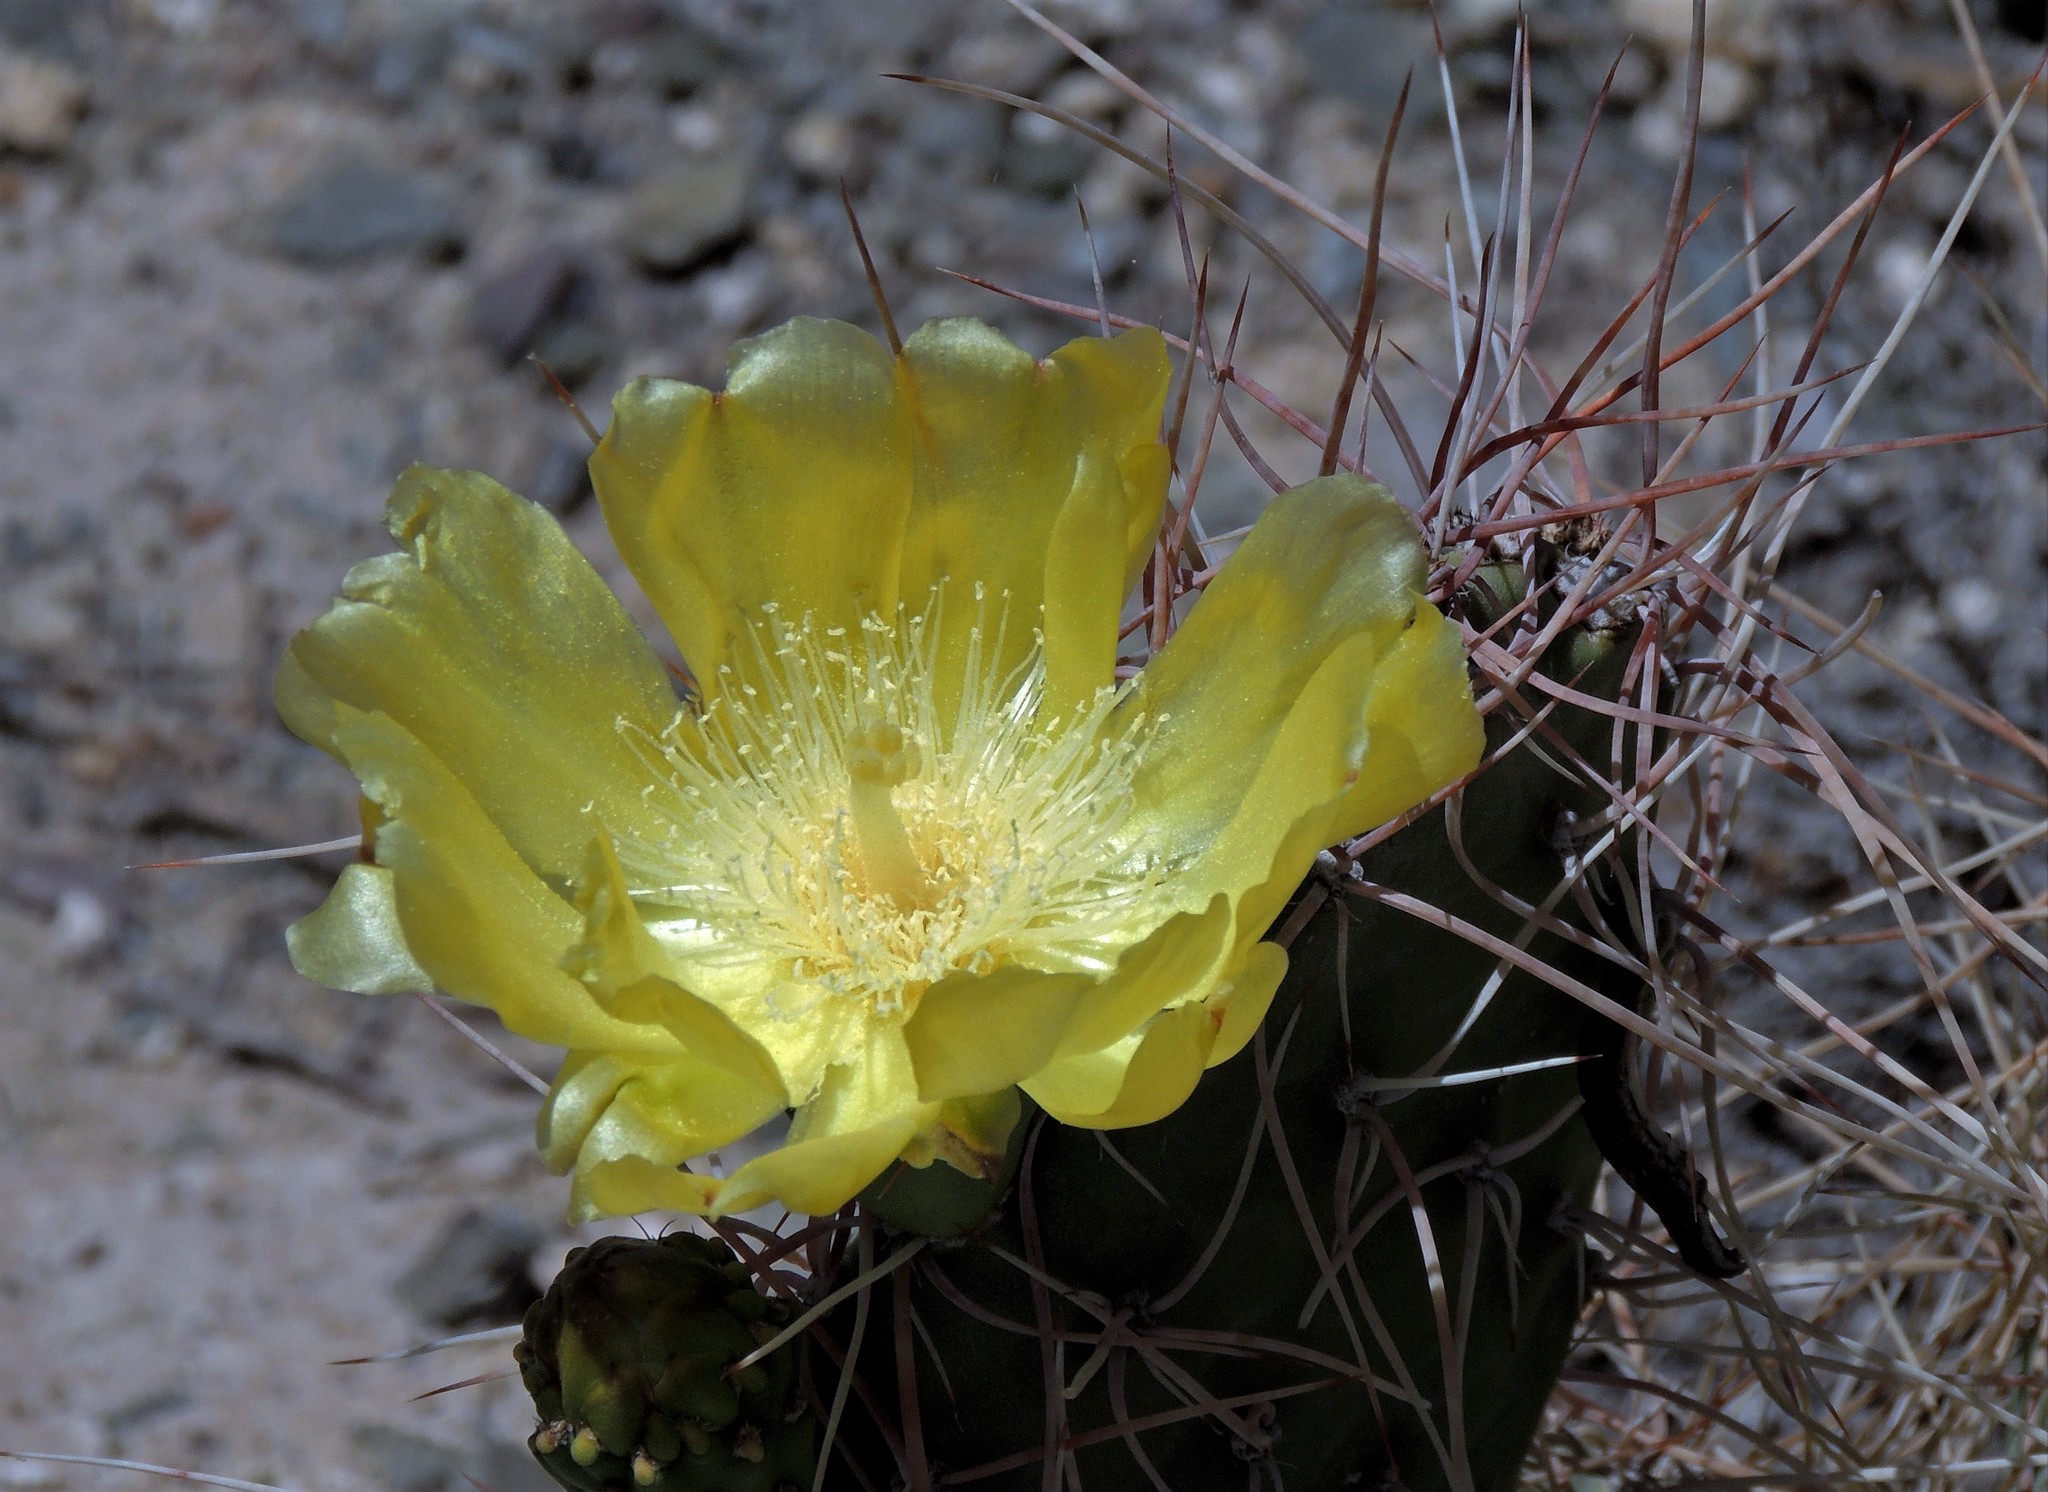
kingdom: Plantae
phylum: Tracheophyta
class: Magnoliopsida
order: Caryophyllales
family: Cactaceae
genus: Opuntia
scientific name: Opuntia sulphurea
